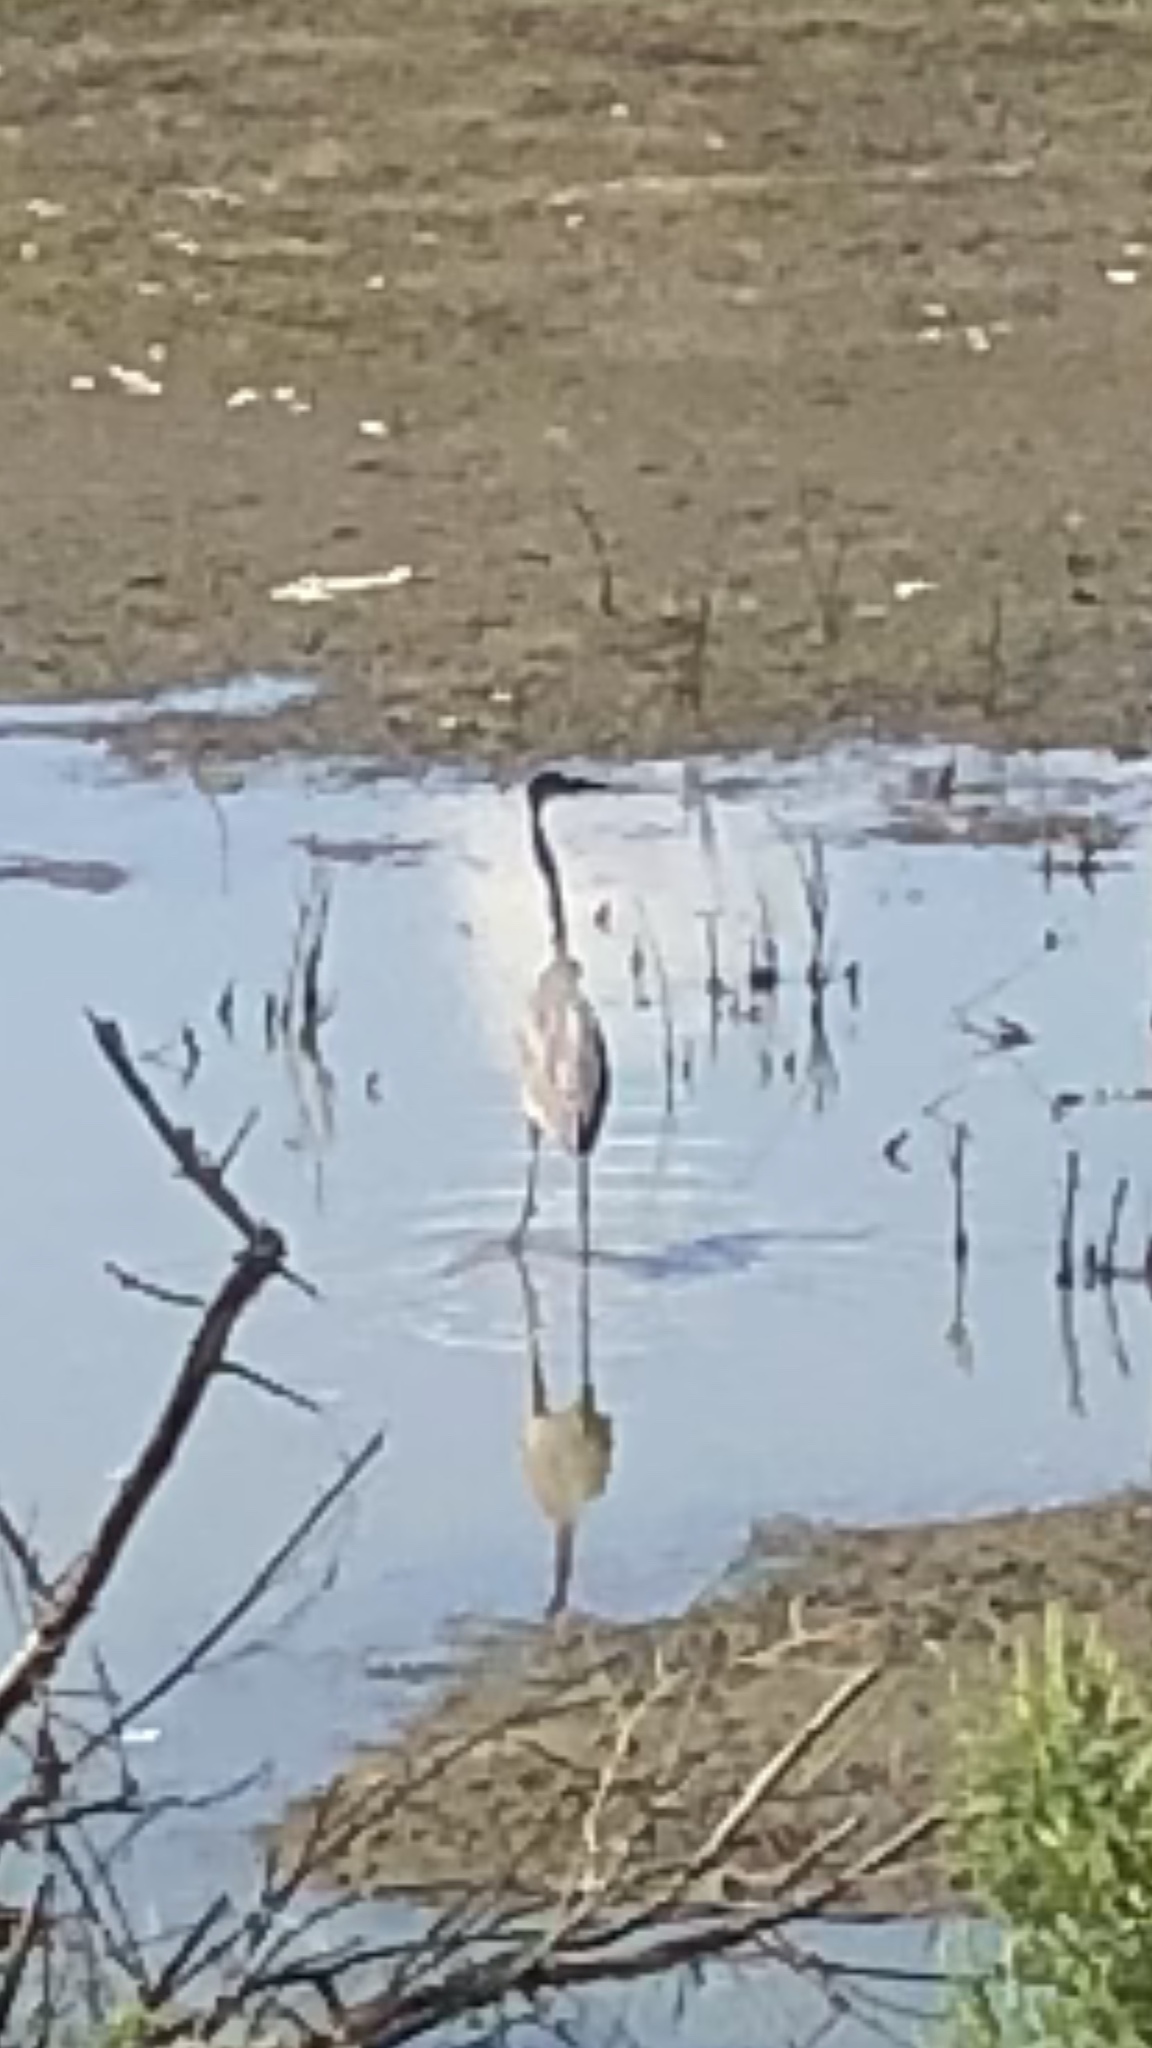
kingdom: Animalia
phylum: Chordata
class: Aves
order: Pelecaniformes
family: Ardeidae
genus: Ardea
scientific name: Ardea herodias
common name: Great blue heron
